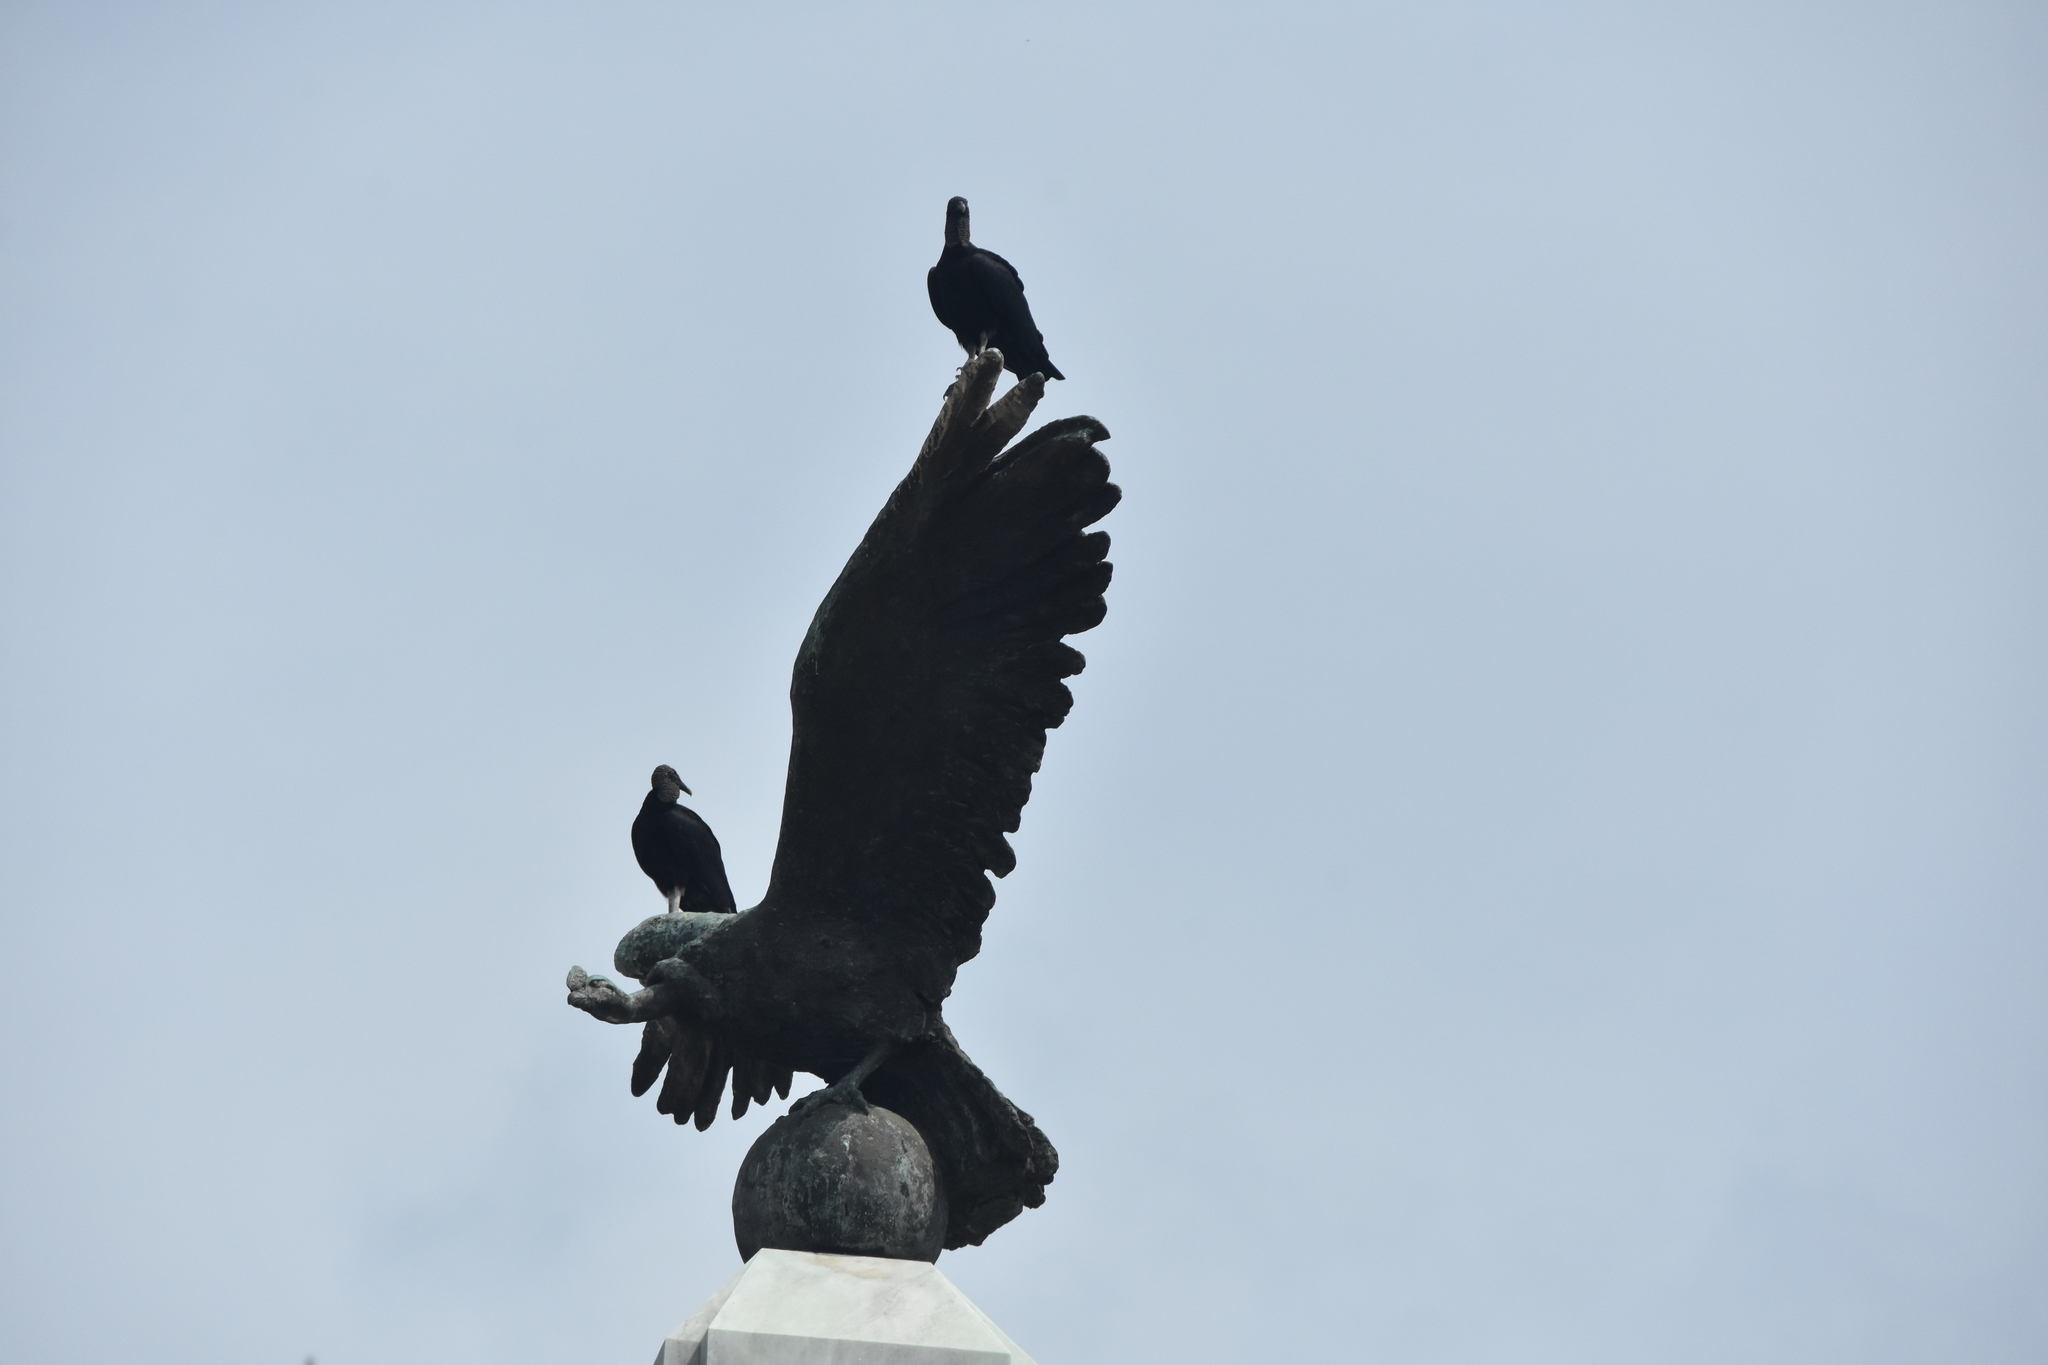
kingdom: Animalia
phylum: Chordata
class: Aves
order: Accipitriformes
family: Cathartidae
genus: Coragyps
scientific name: Coragyps atratus
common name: Black vulture
